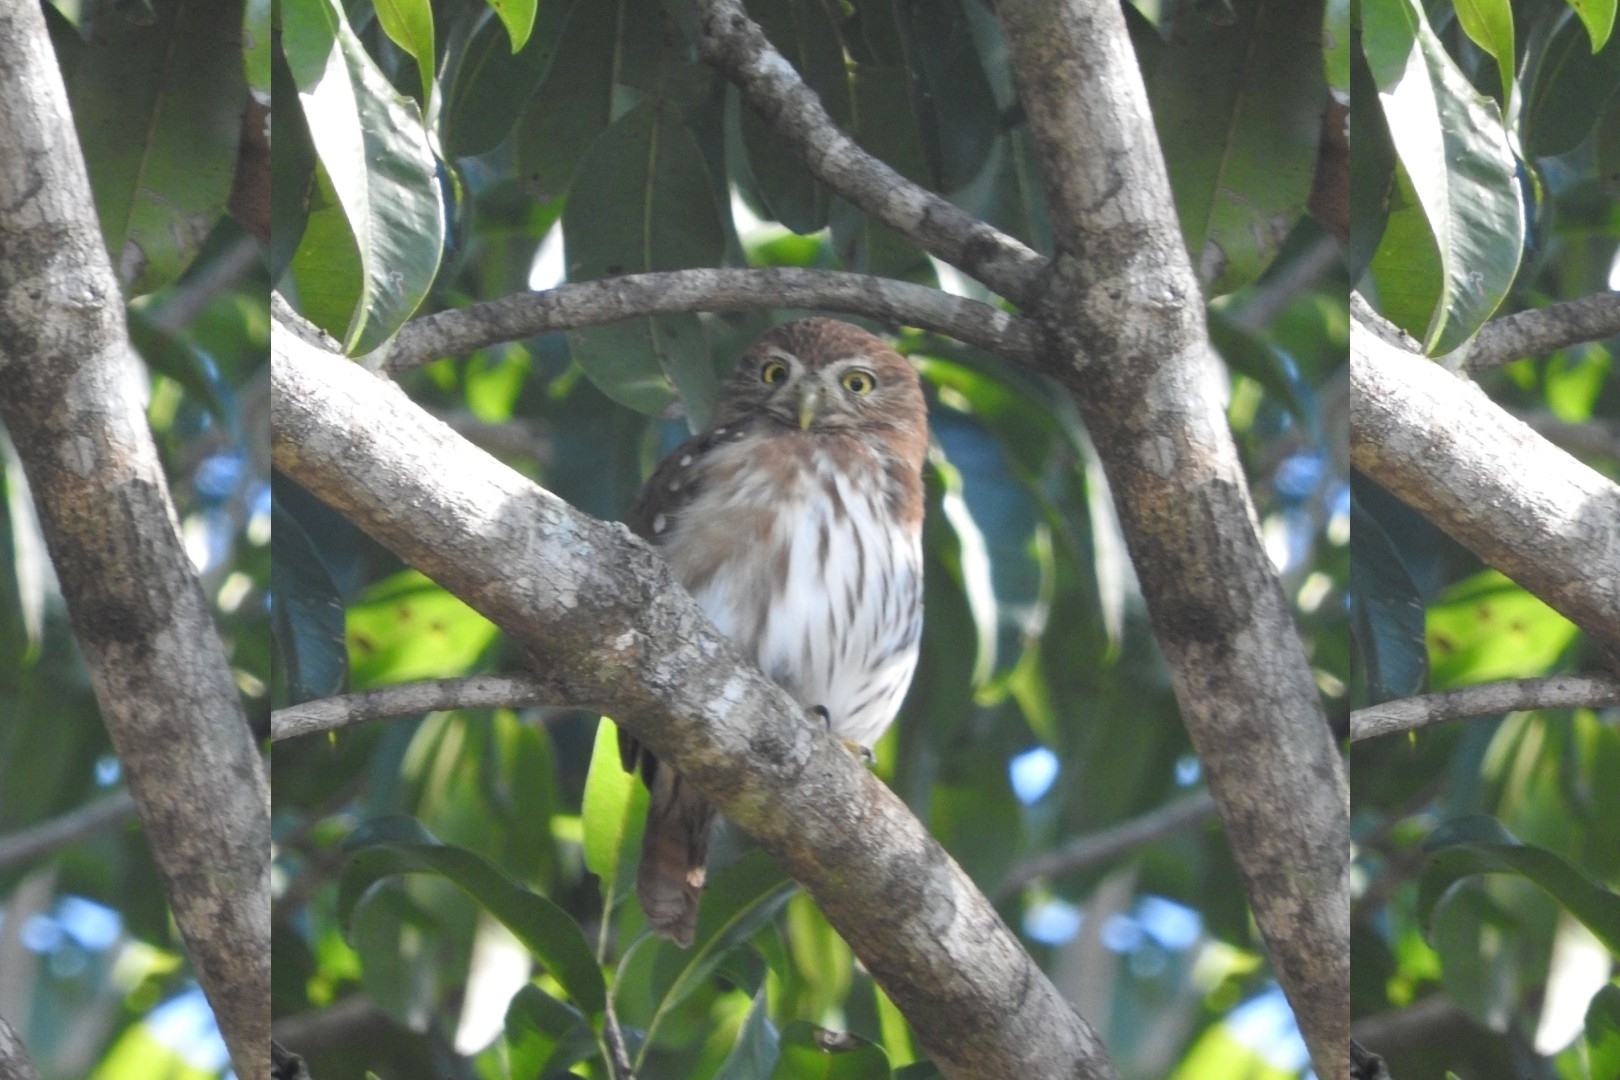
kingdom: Animalia
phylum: Chordata
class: Aves
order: Strigiformes
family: Strigidae
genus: Glaucidium
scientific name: Glaucidium brasilianum
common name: Ferruginous pygmy-owl
